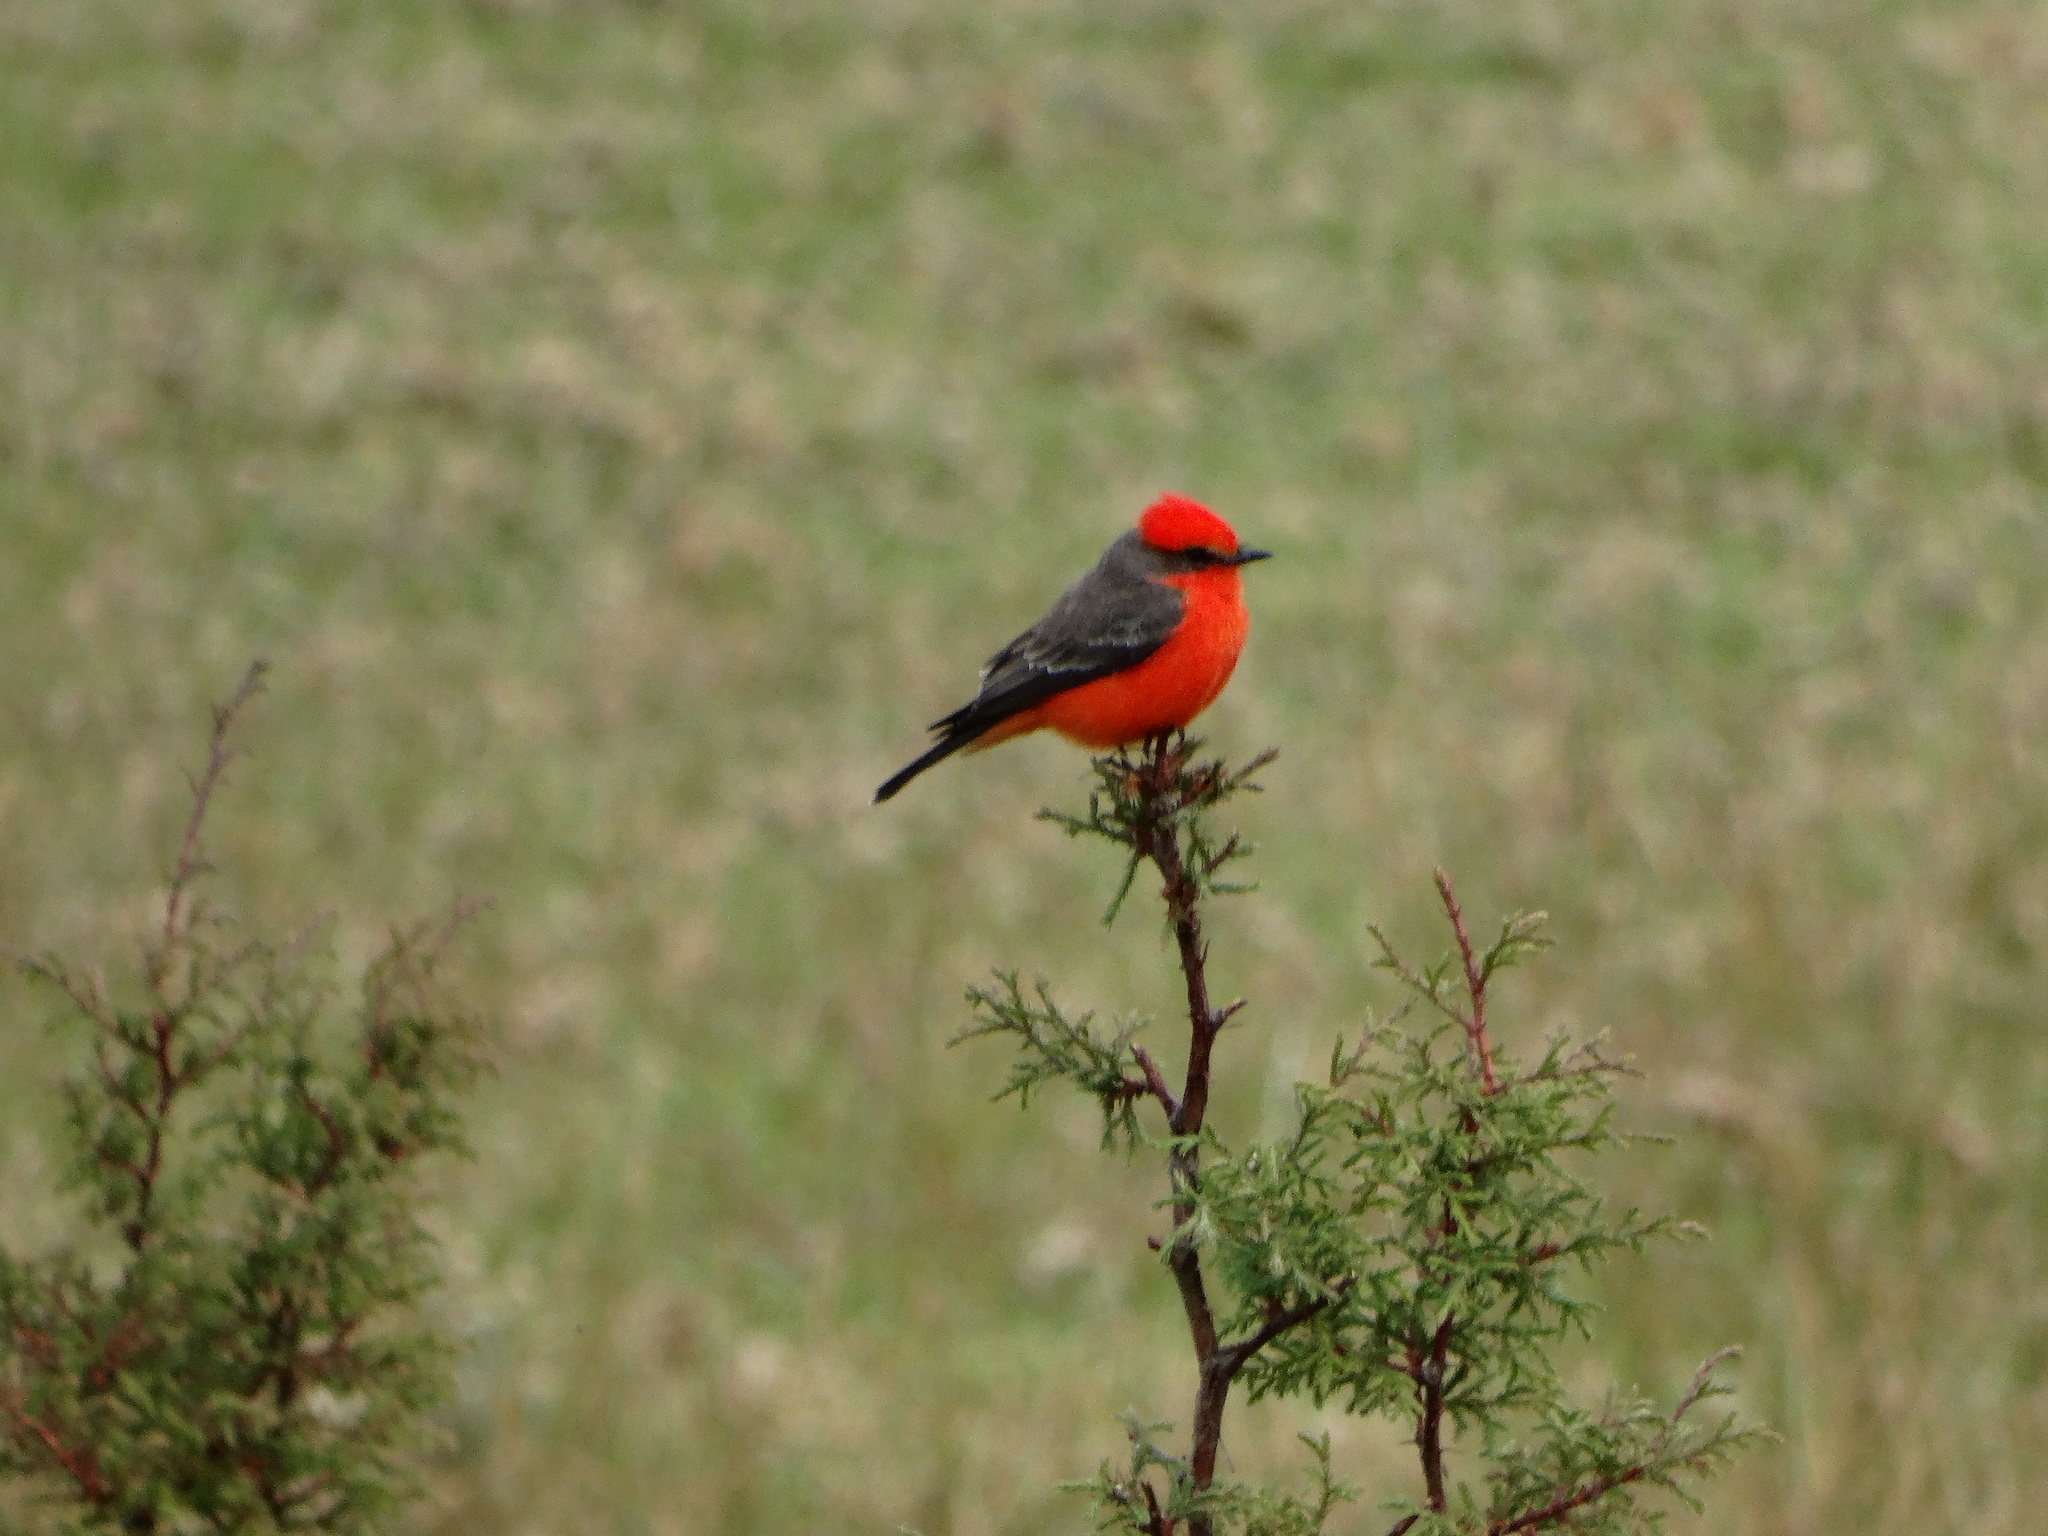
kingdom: Animalia
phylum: Chordata
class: Aves
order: Passeriformes
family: Tyrannidae
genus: Pyrocephalus
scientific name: Pyrocephalus rubinus
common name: Vermilion flycatcher
